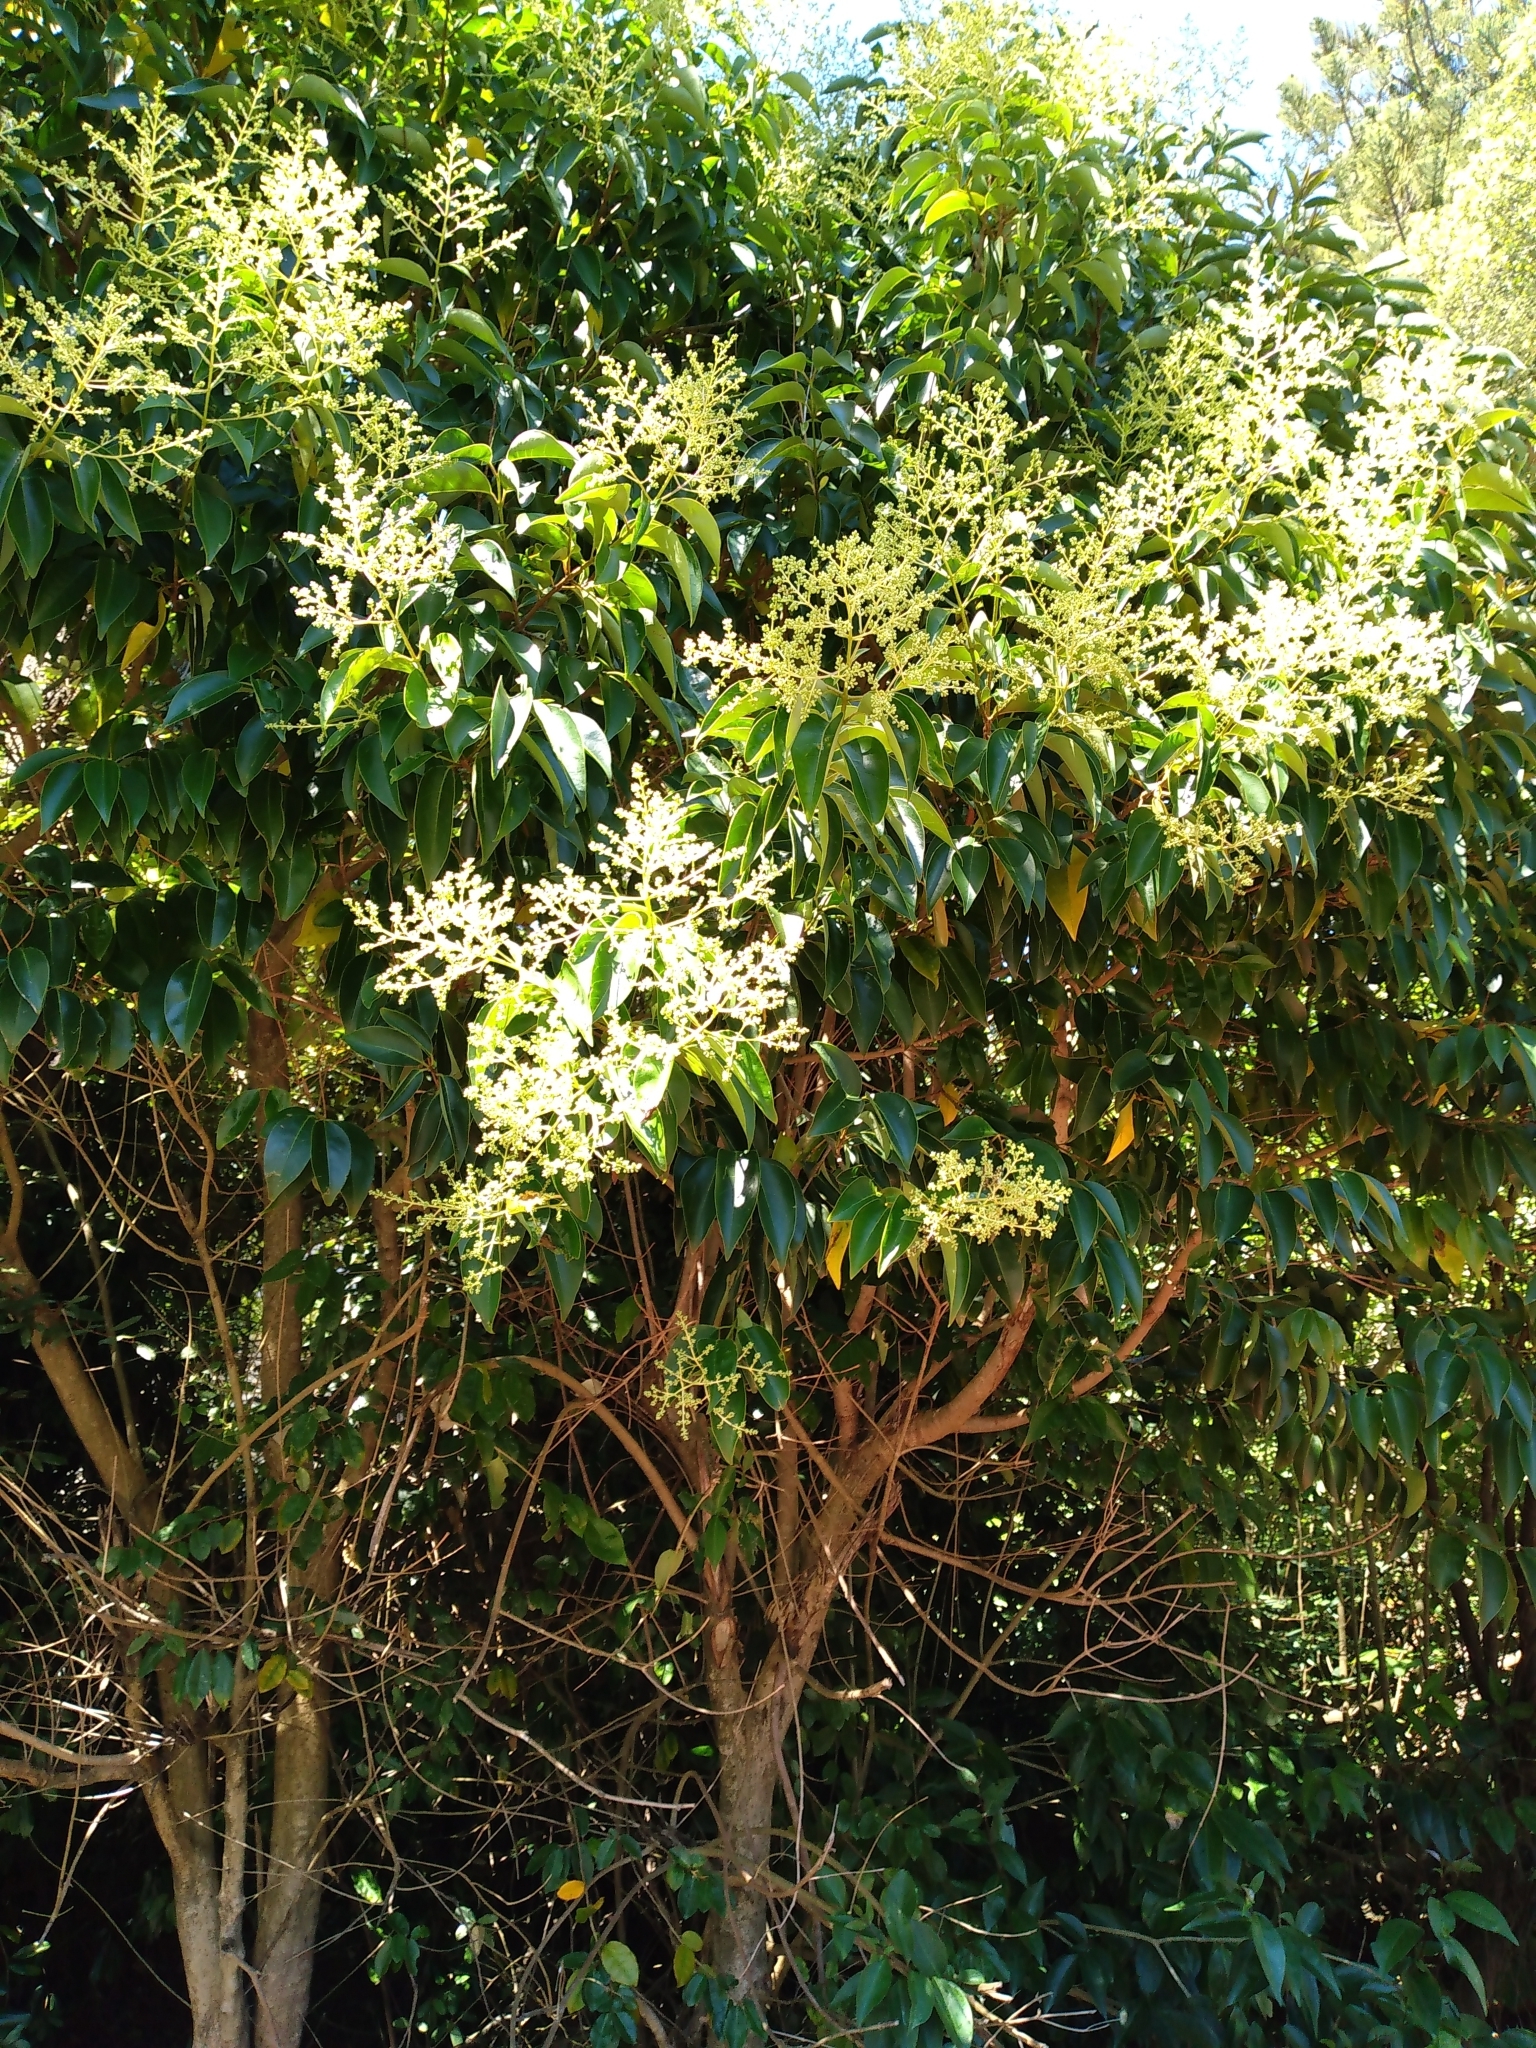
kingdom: Plantae
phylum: Tracheophyta
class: Magnoliopsida
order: Lamiales
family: Oleaceae
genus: Ligustrum
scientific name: Ligustrum lucidum
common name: Glossy privet
